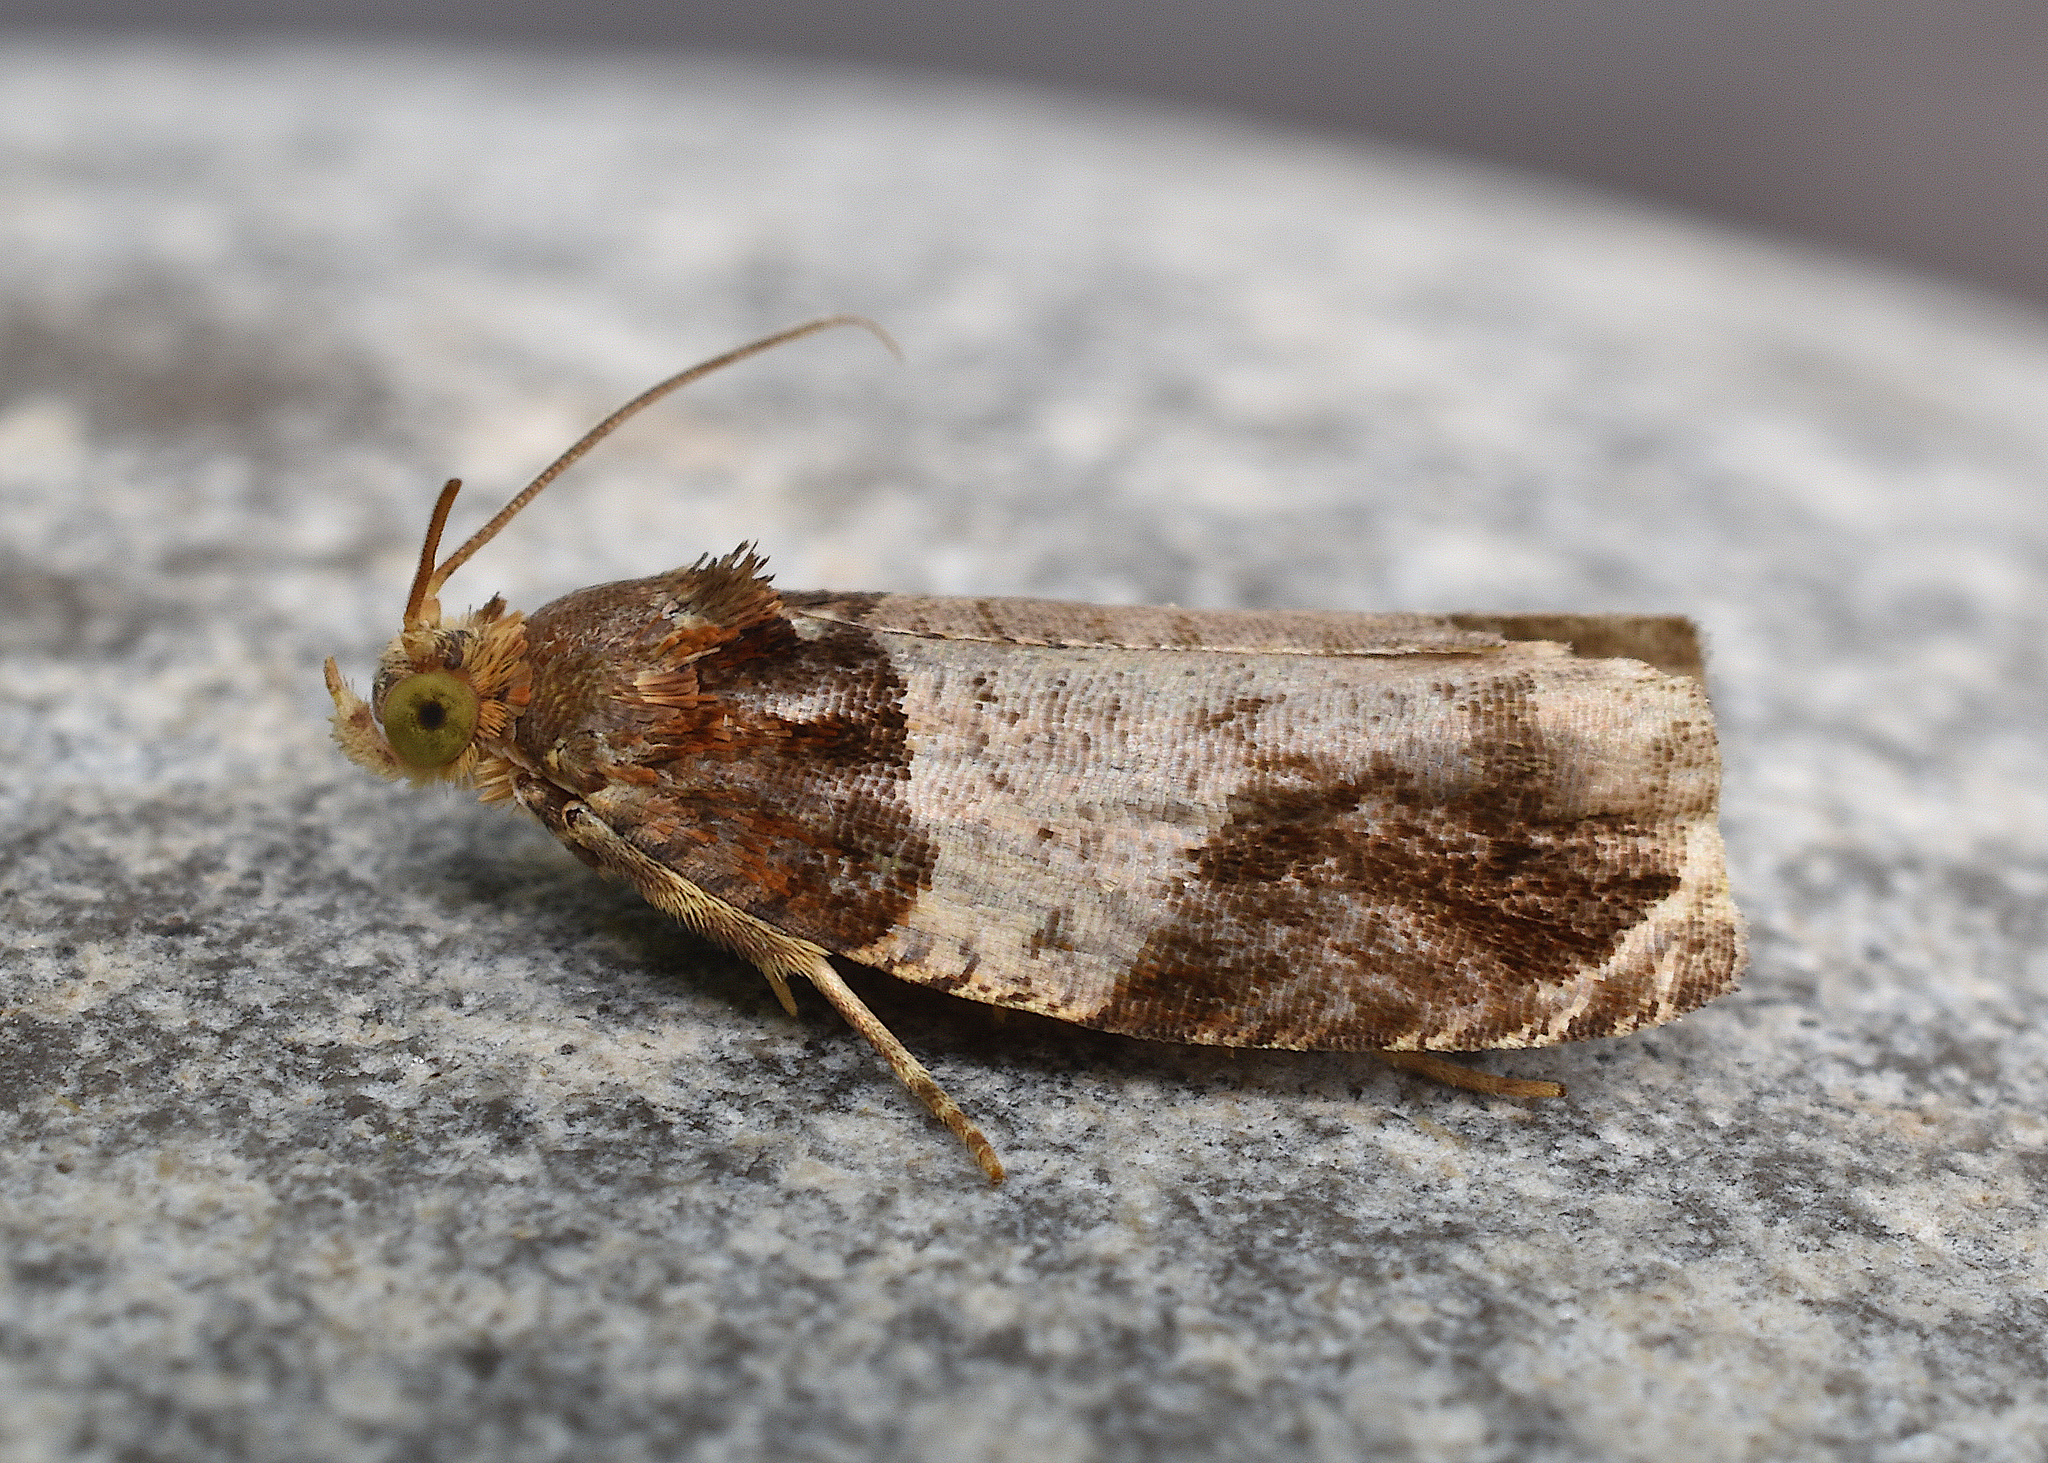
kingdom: Animalia
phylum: Arthropoda
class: Insecta
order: Lepidoptera
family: Tortricidae
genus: Olethreutes
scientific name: Olethreutes ferriferana
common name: Hydrangea leaftier moth
